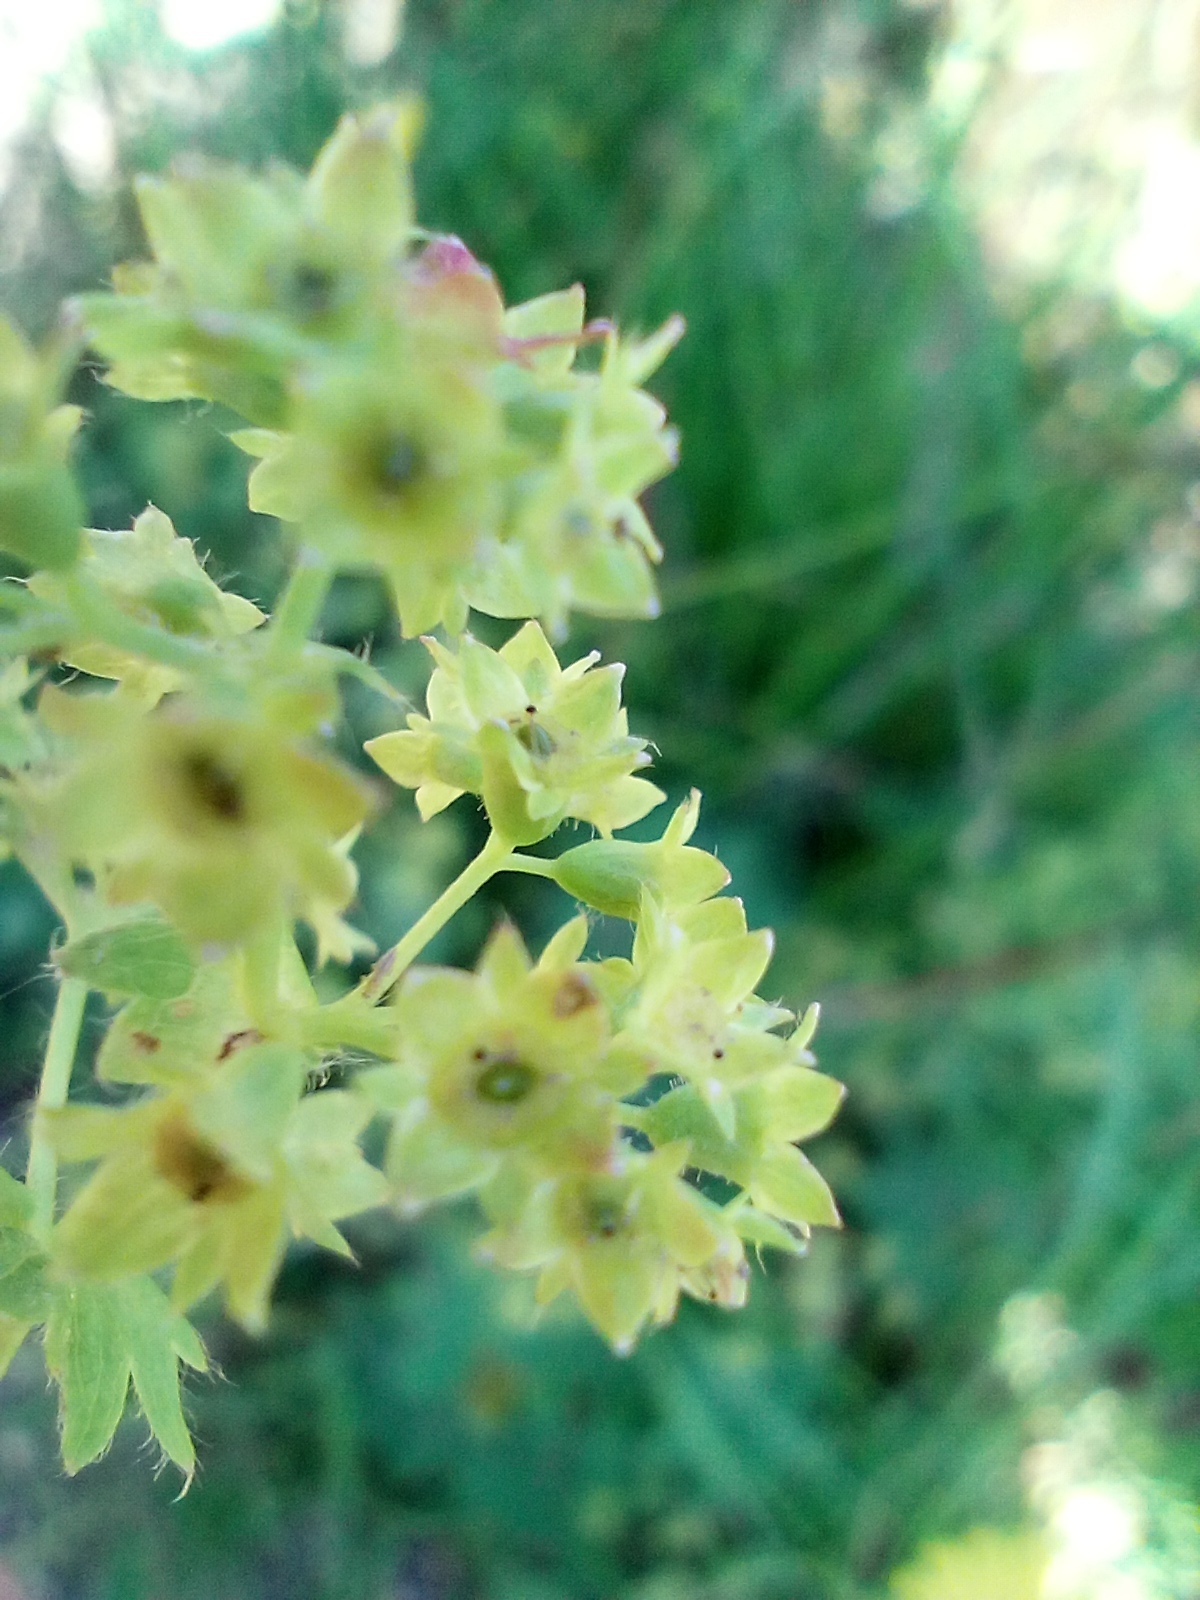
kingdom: Plantae
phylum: Tracheophyta
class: Magnoliopsida
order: Rosales
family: Rosaceae
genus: Alchemilla
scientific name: Alchemilla monticola
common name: Hairy lady's mantle
